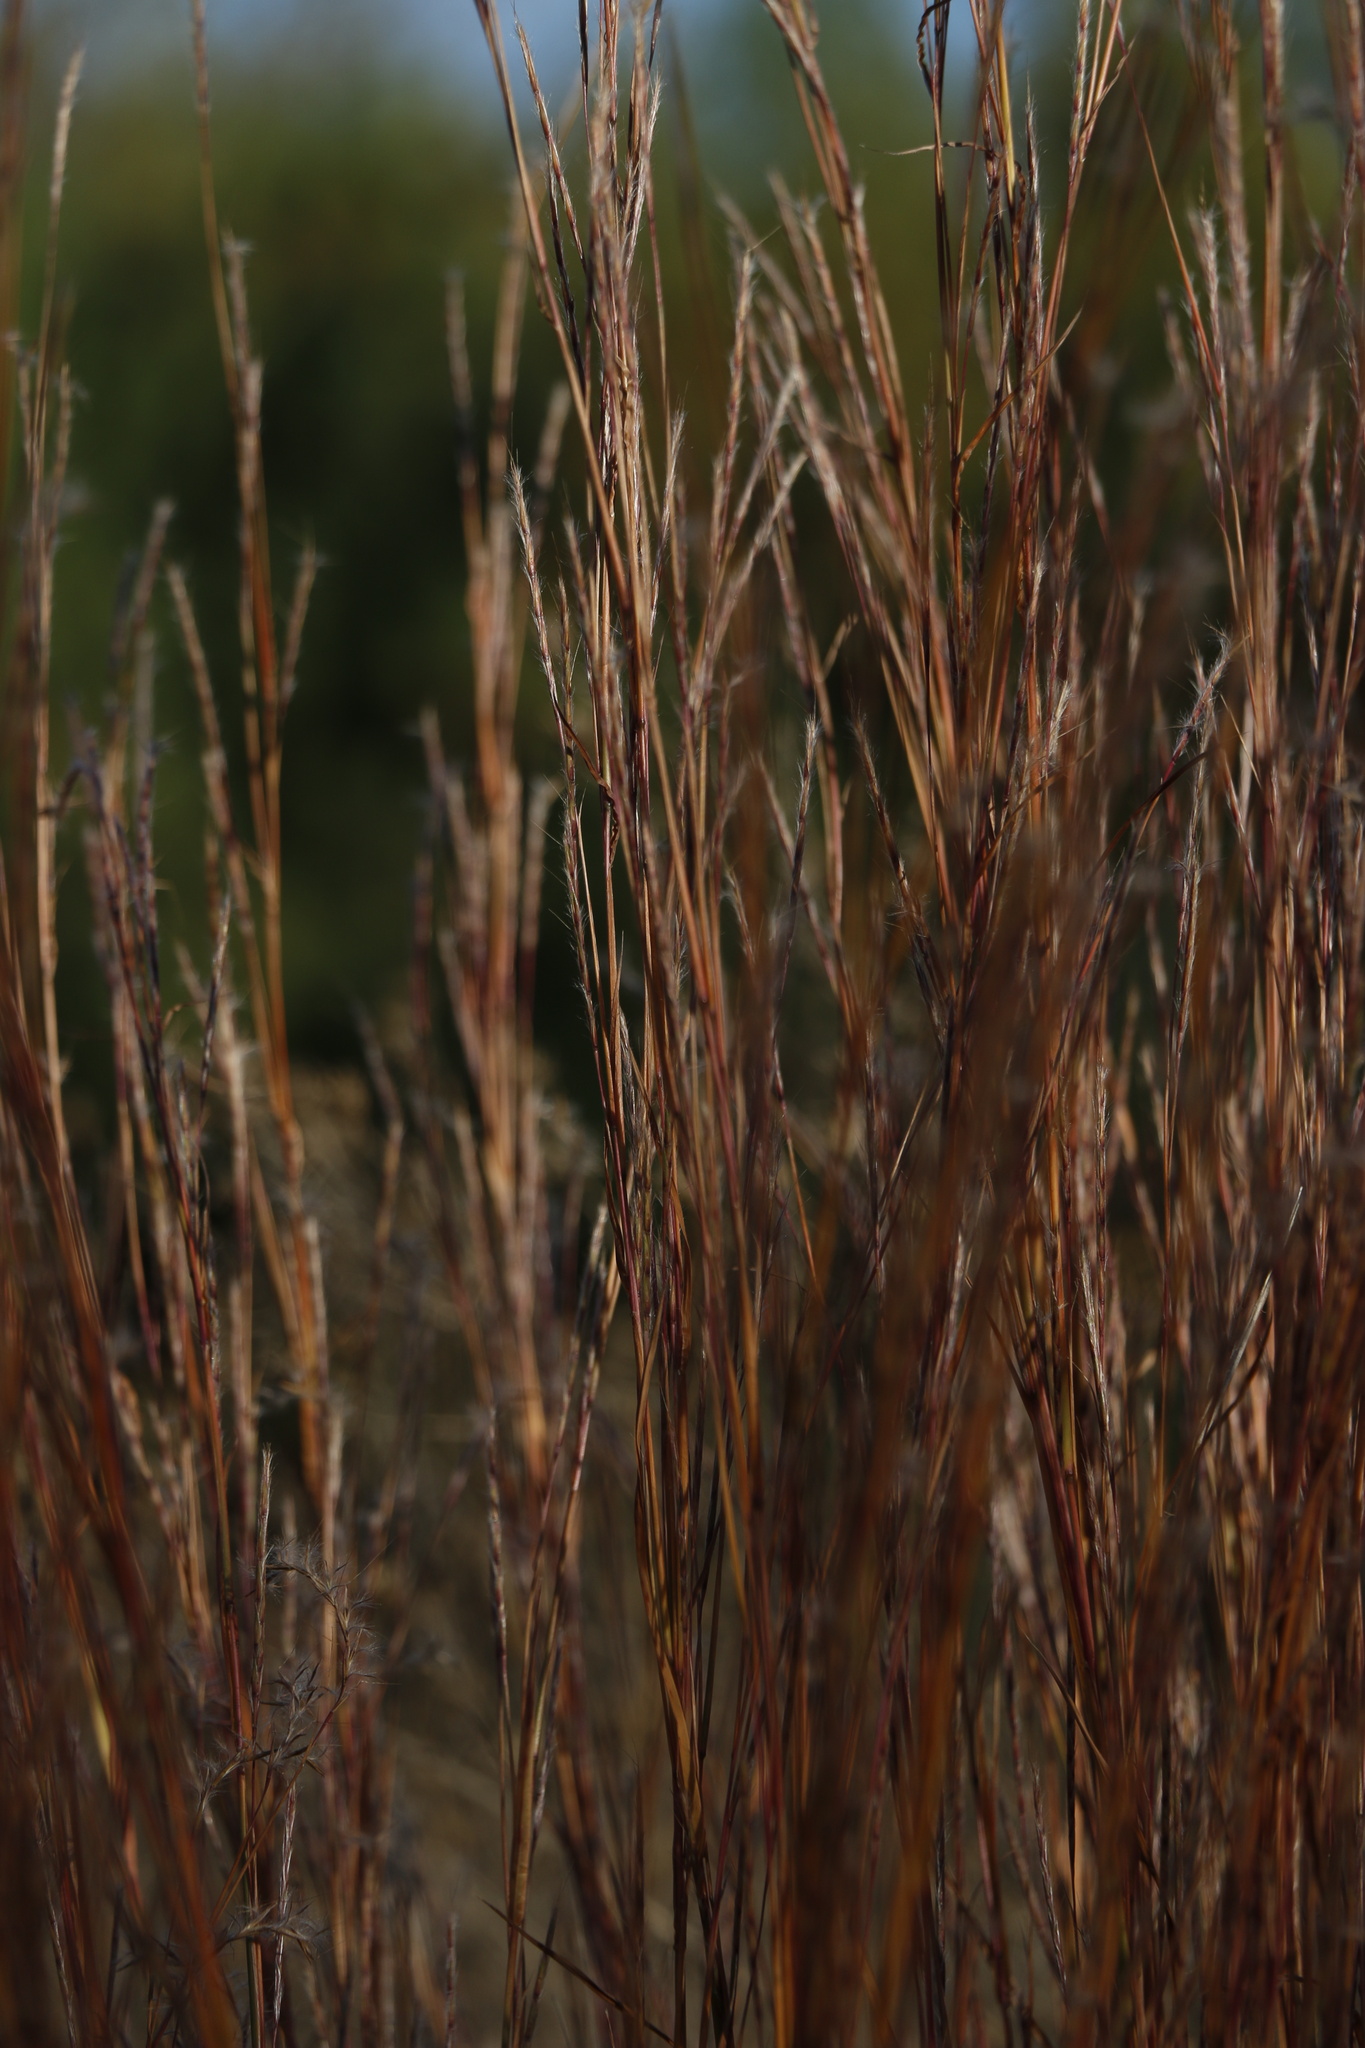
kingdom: Plantae
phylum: Tracheophyta
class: Liliopsida
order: Poales
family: Poaceae
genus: Schizachyrium
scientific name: Schizachyrium scoparium
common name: Little bluestem
